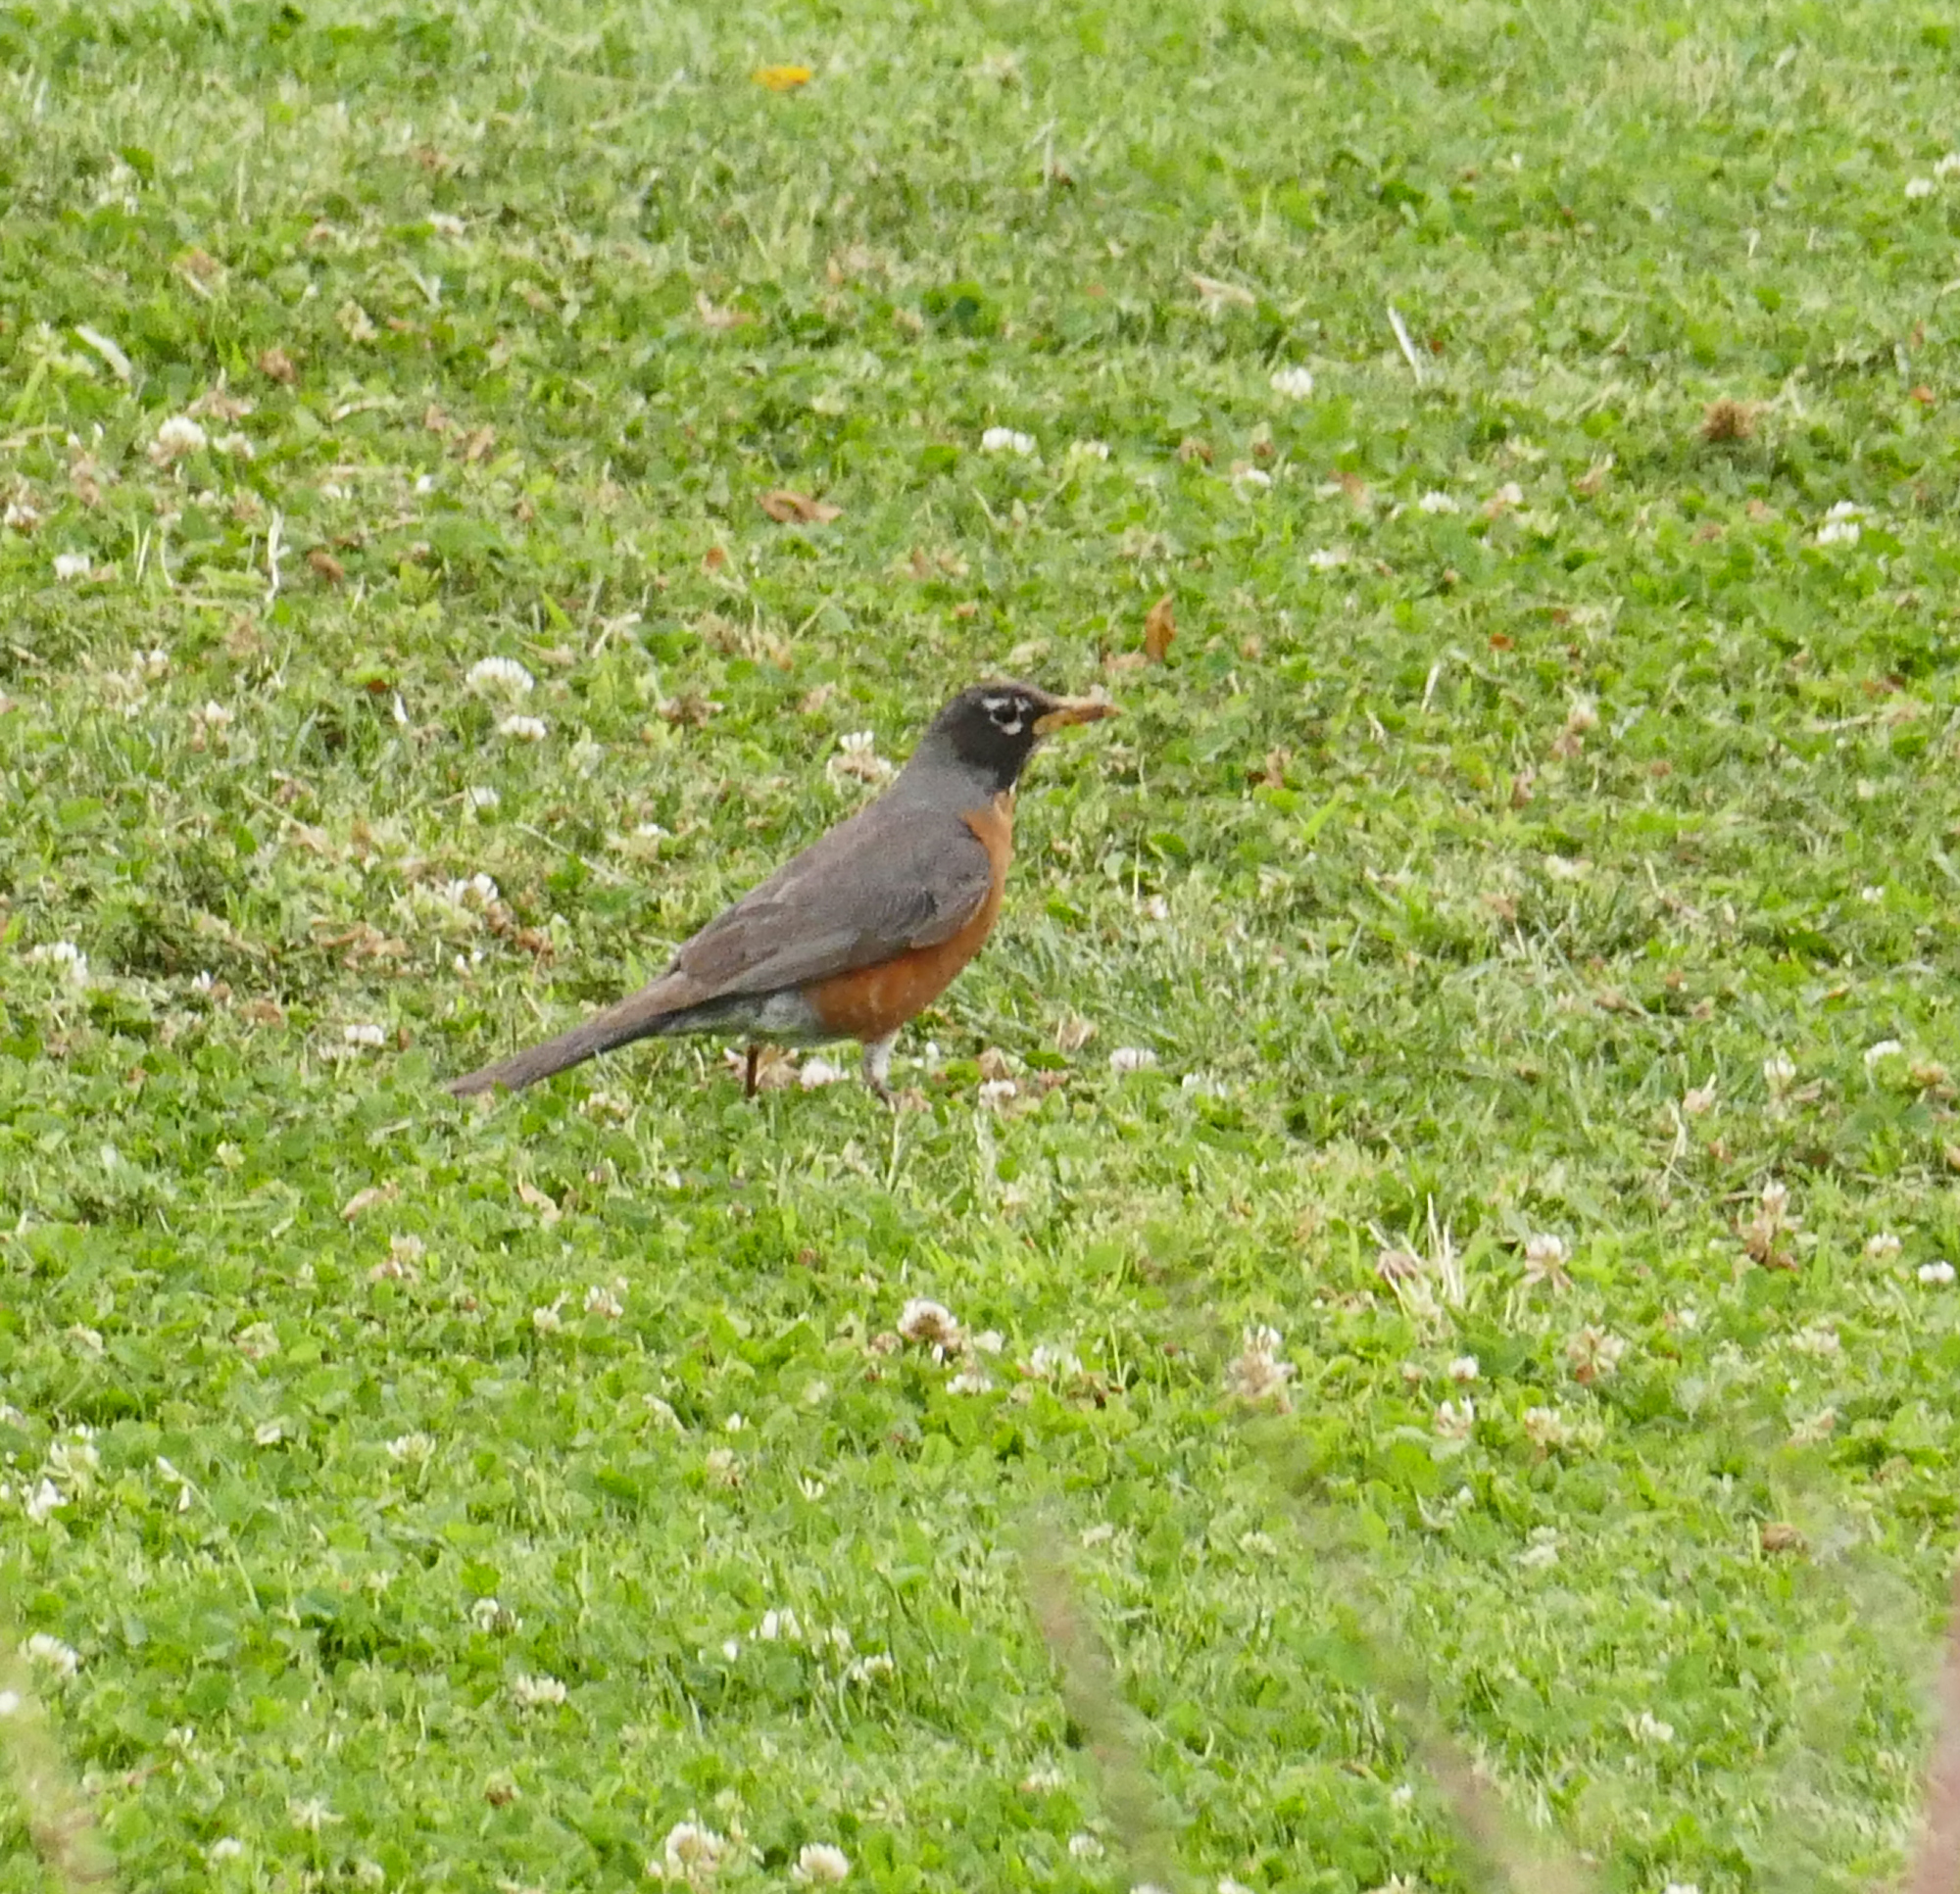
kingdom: Animalia
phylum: Chordata
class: Aves
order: Passeriformes
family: Turdidae
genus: Turdus
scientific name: Turdus migratorius
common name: American robin
